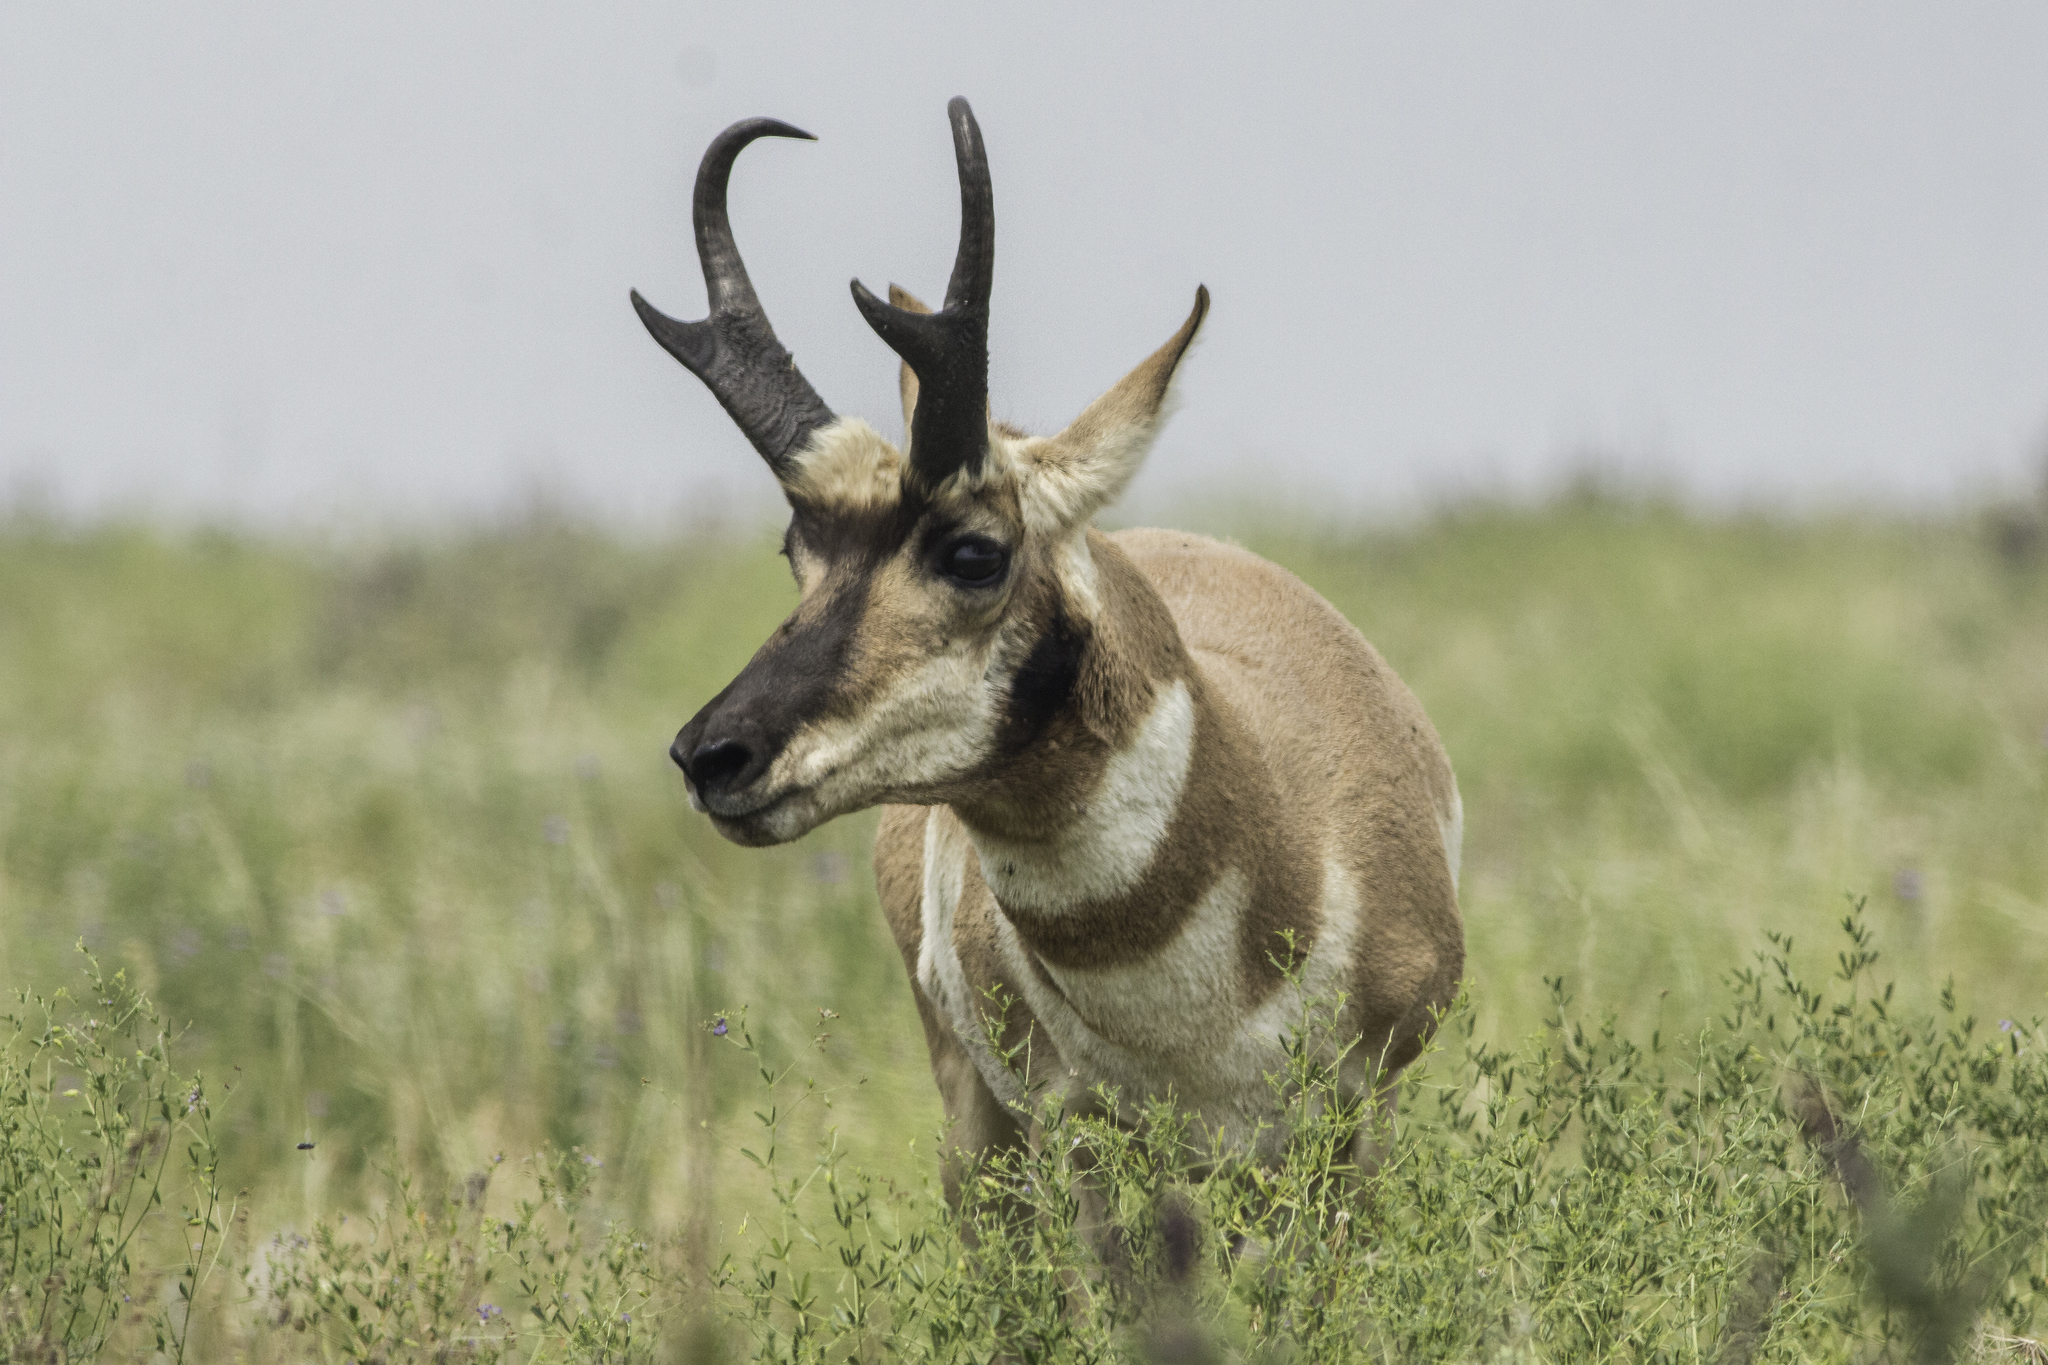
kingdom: Animalia
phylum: Chordata
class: Mammalia
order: Artiodactyla
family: Antilocapridae
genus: Antilocapra
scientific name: Antilocapra americana
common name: Pronghorn
